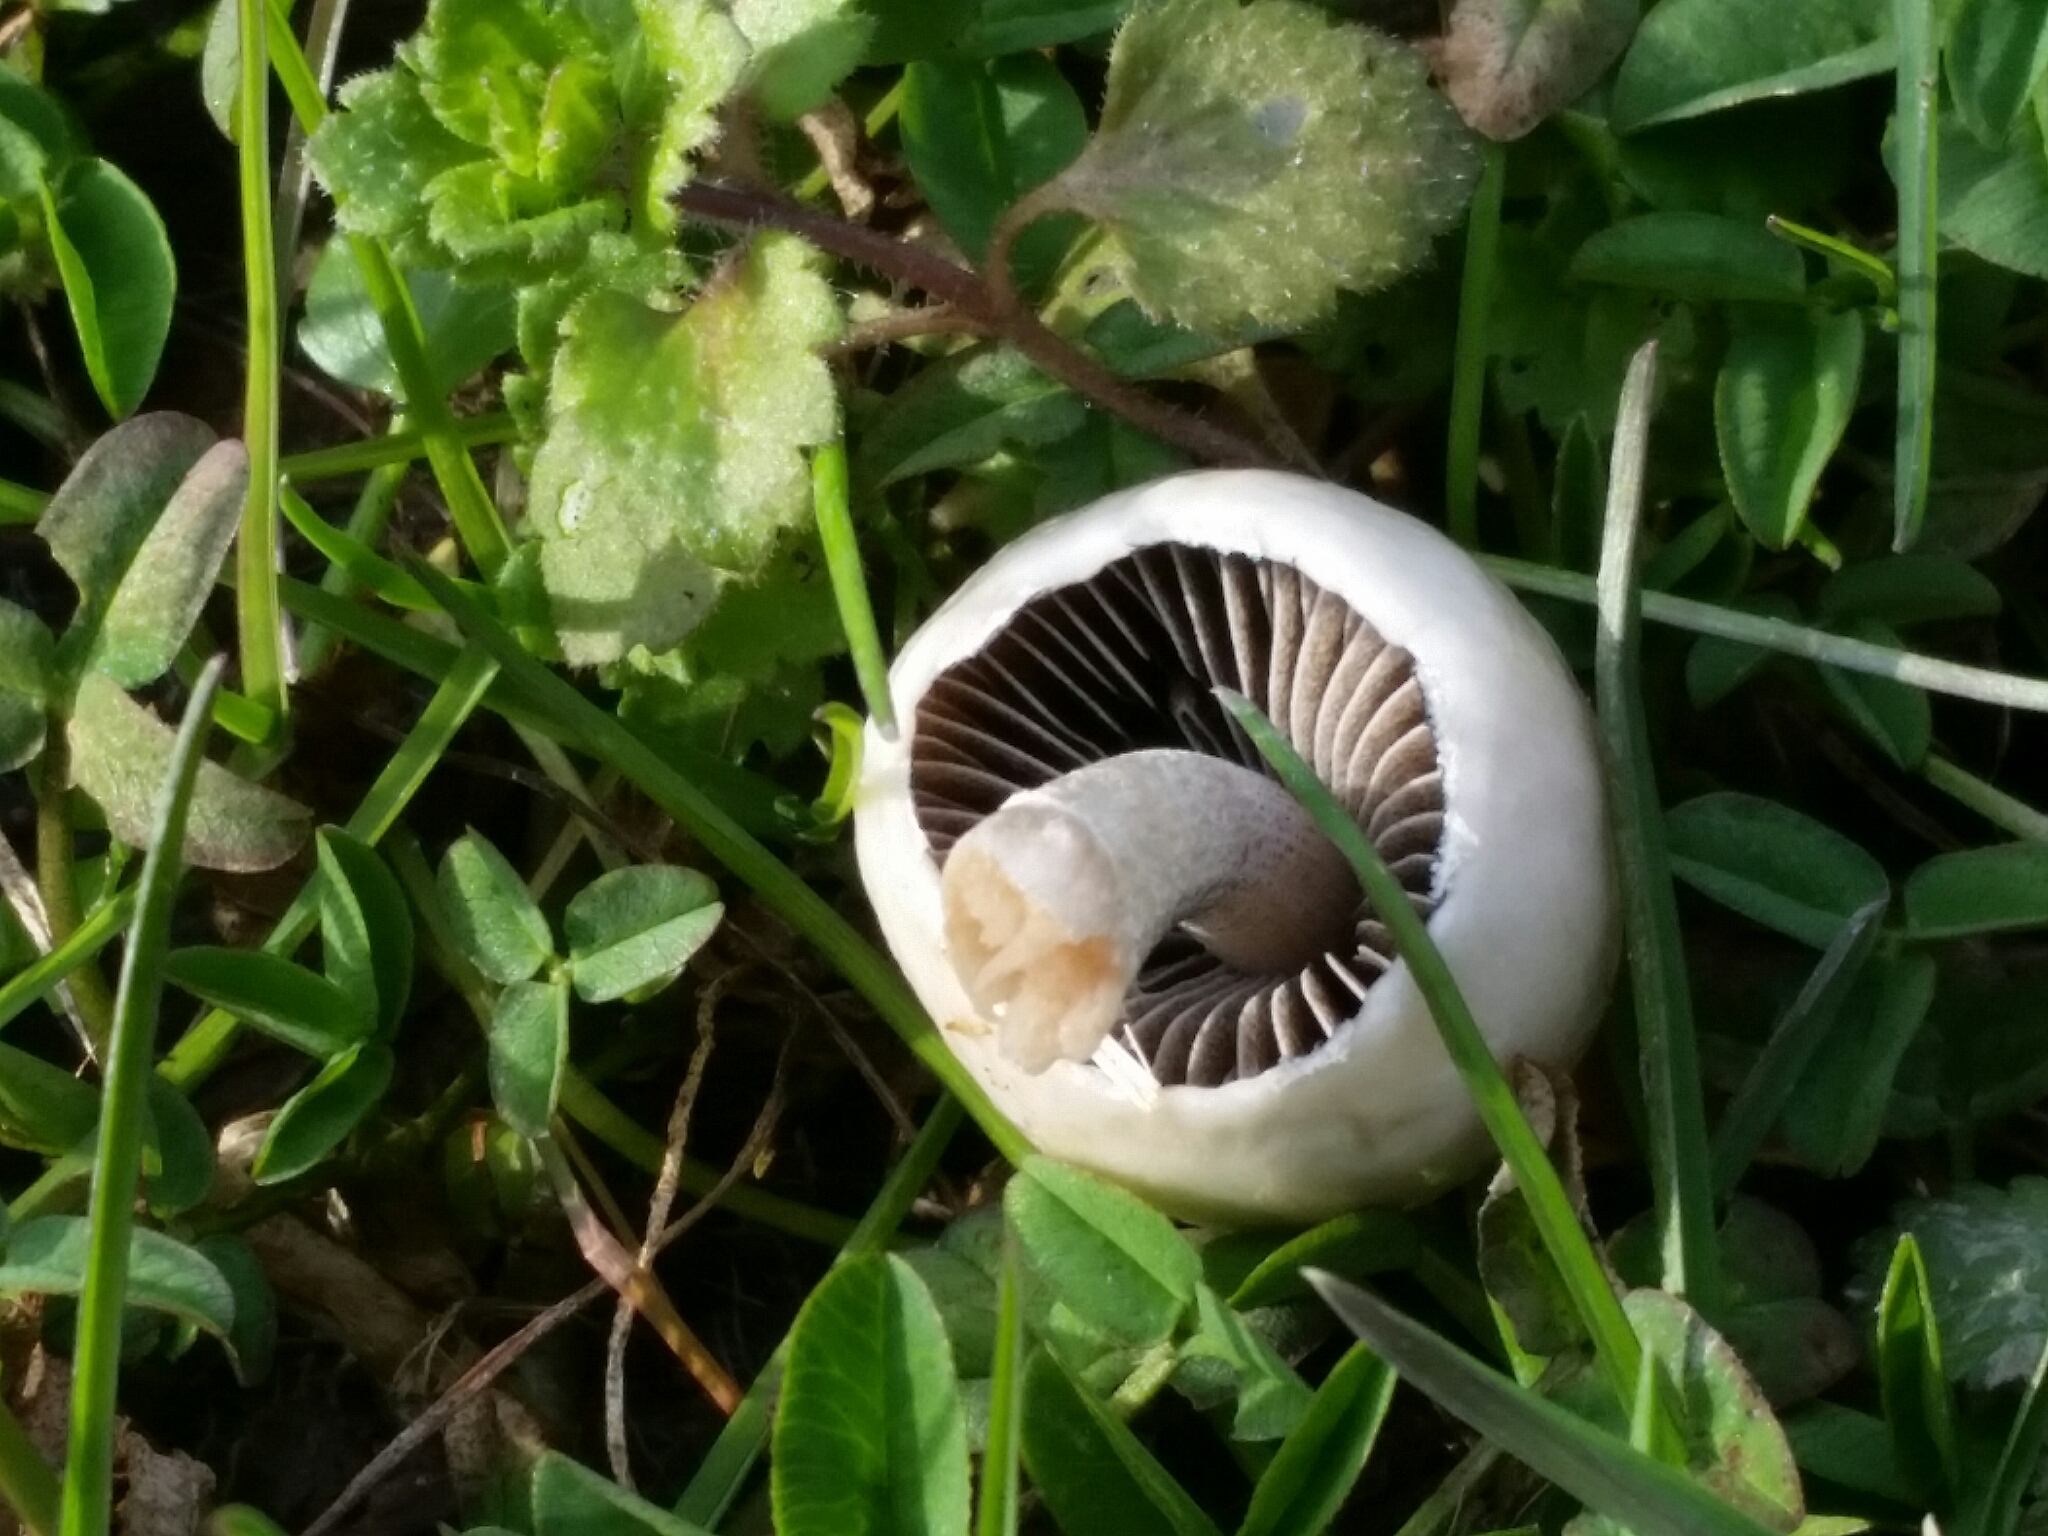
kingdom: Fungi
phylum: Basidiomycota
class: Agaricomycetes
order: Agaricales
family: Bolbitiaceae
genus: Panaeolus
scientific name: Panaeolus semiovatus
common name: Shiny mottlegill
